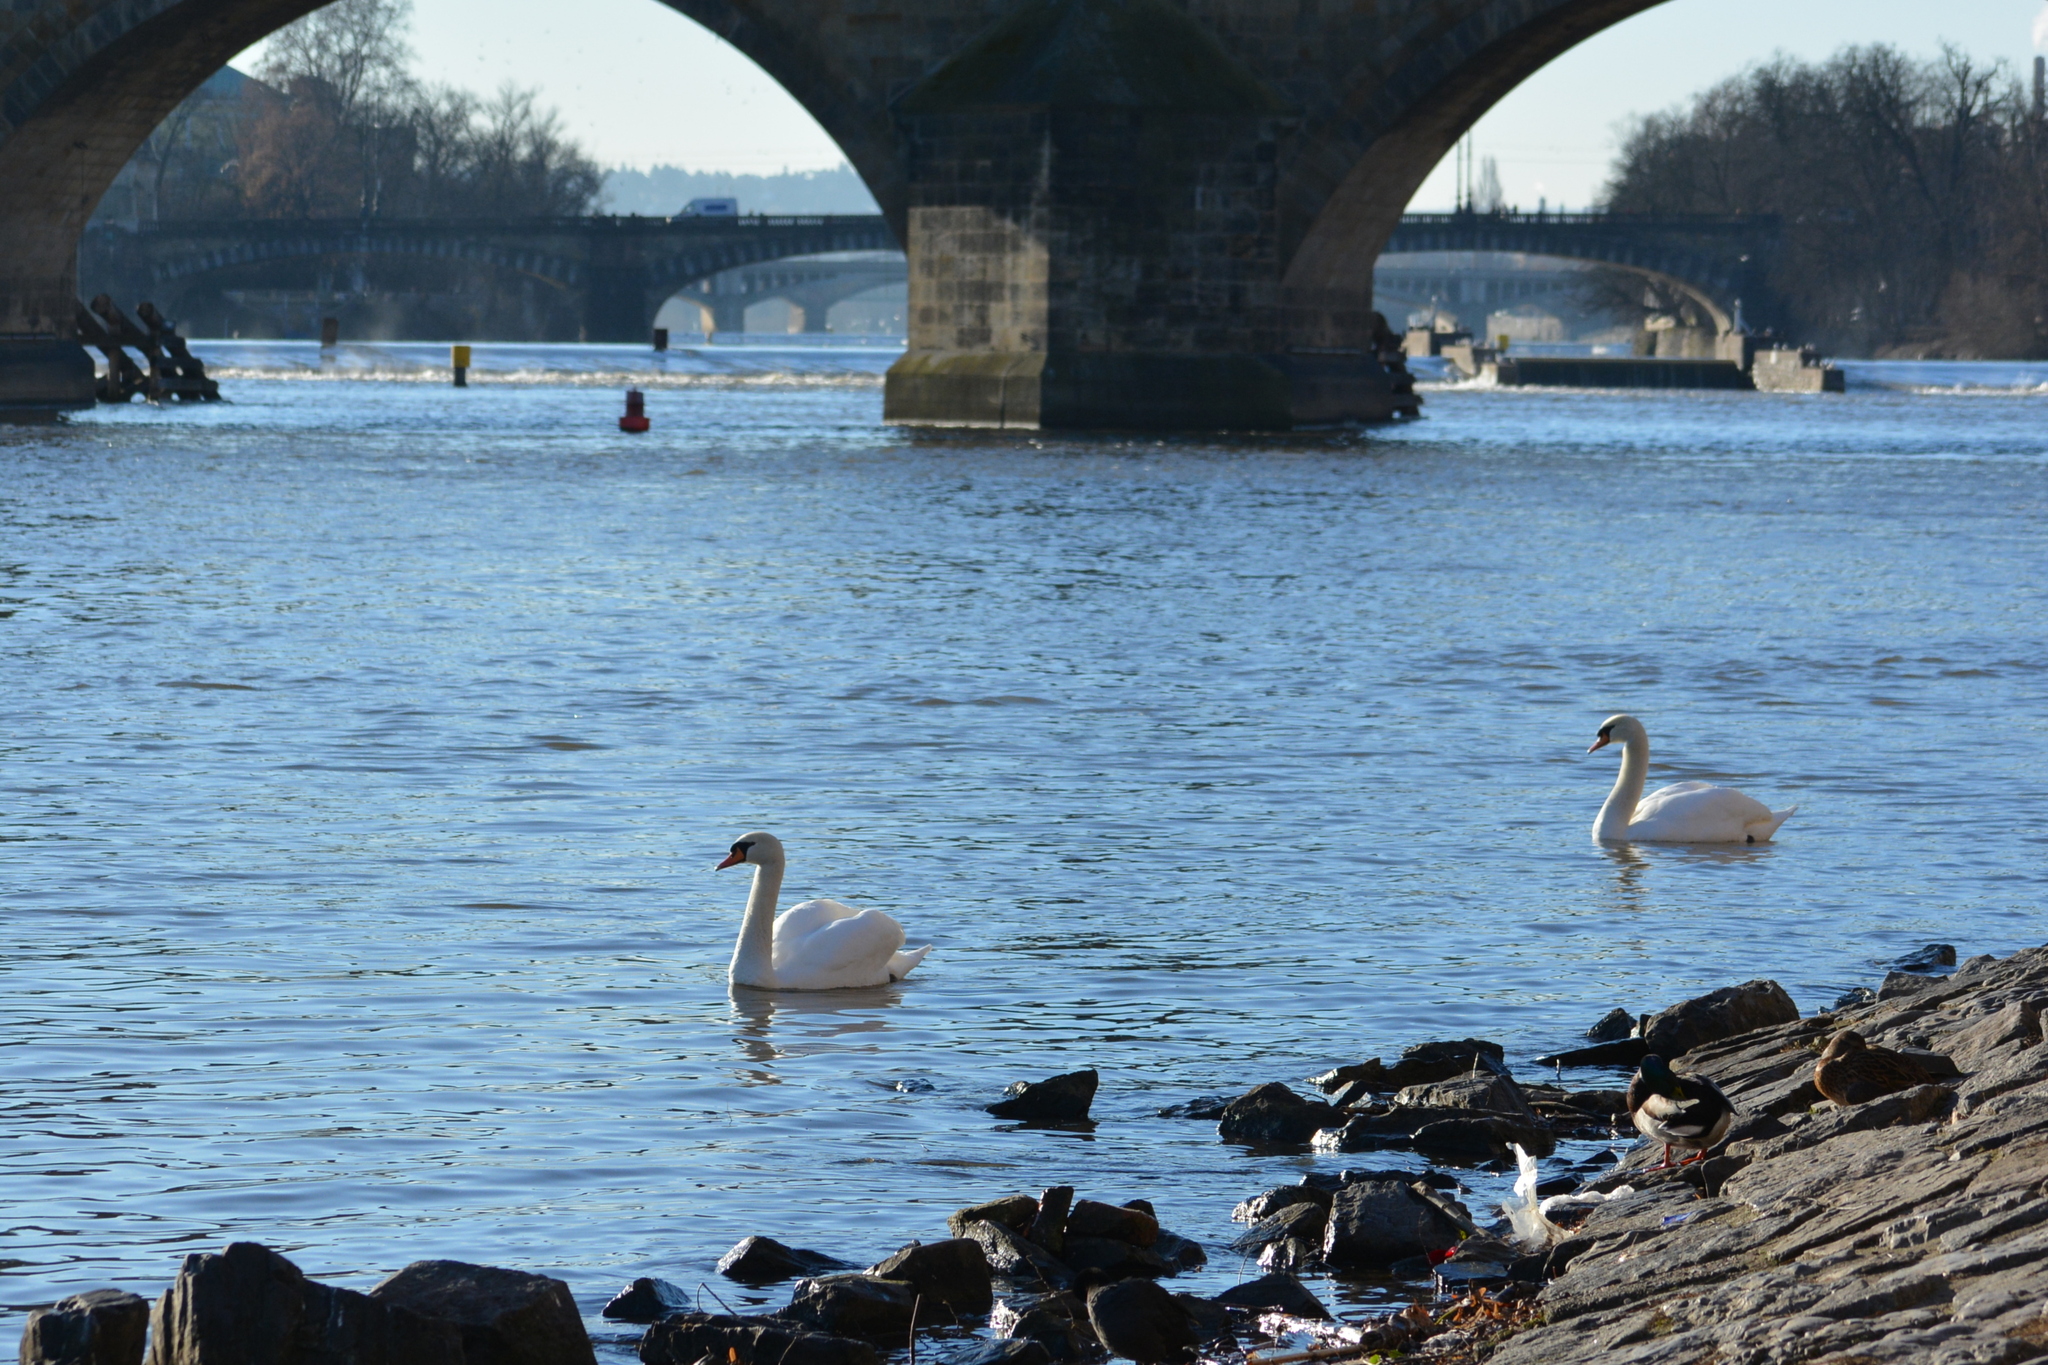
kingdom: Animalia
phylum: Chordata
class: Aves
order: Anseriformes
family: Anatidae
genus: Cygnus
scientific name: Cygnus olor
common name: Mute swan
